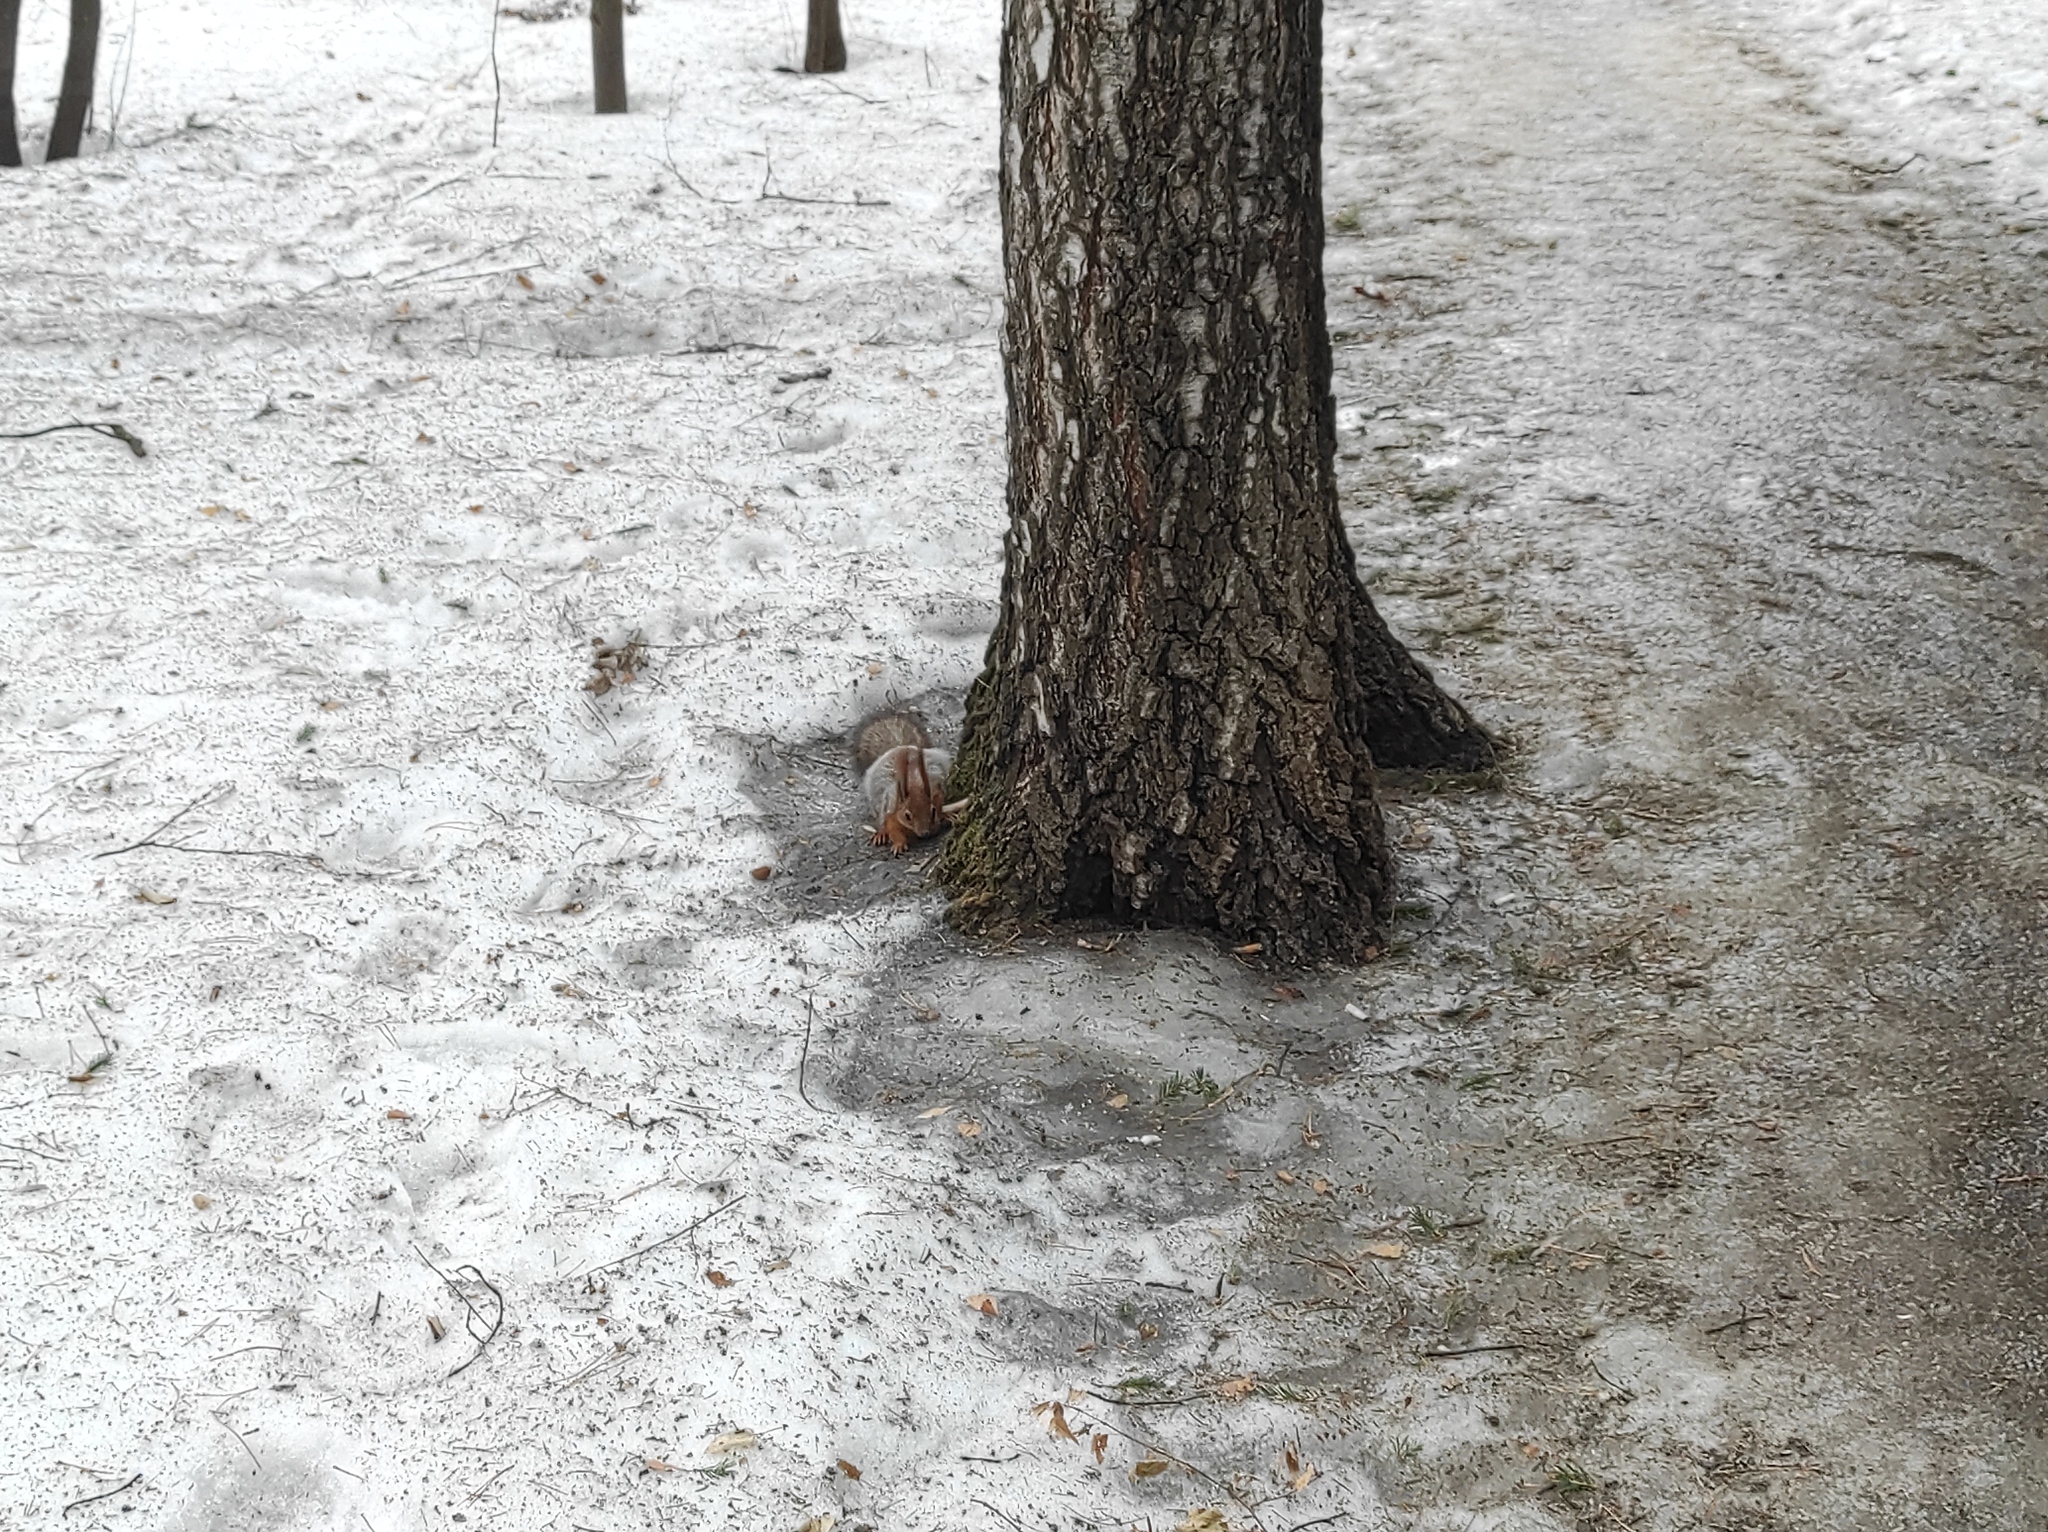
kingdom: Animalia
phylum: Chordata
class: Mammalia
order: Rodentia
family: Sciuridae
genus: Sciurus
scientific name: Sciurus vulgaris
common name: Eurasian red squirrel
